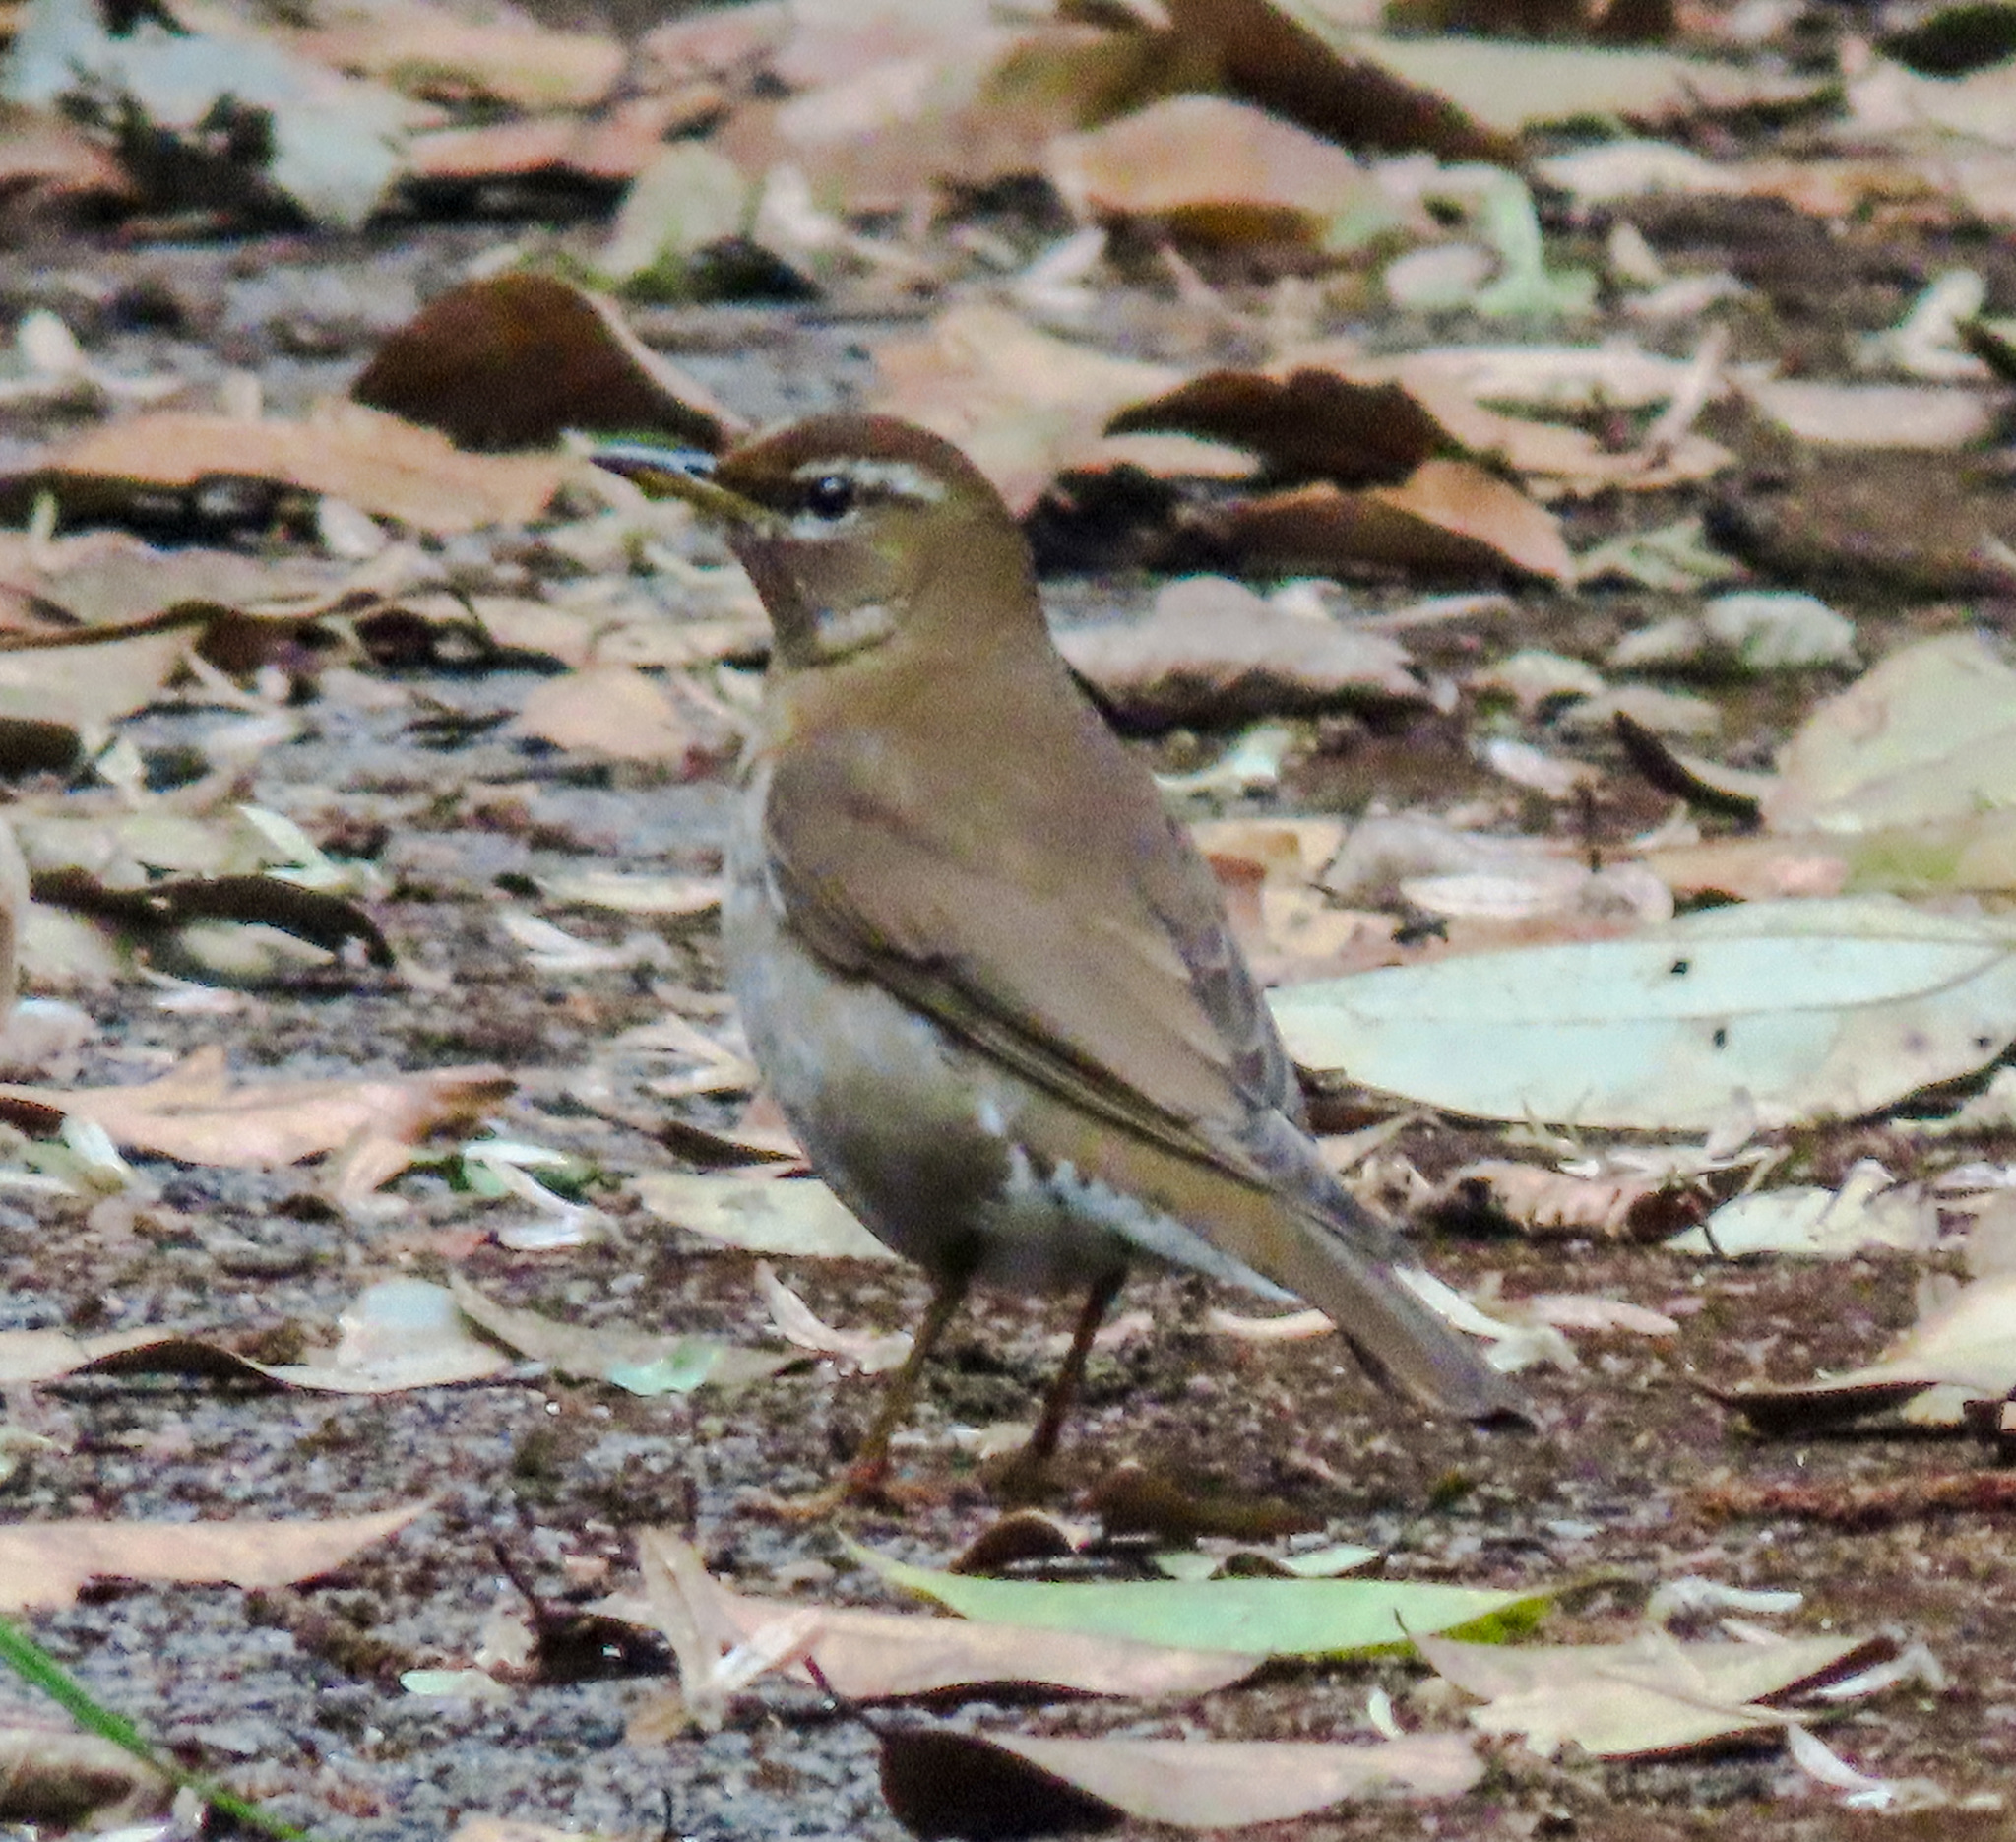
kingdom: Animalia
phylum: Chordata
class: Aves
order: Passeriformes
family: Turdidae
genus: Turdus
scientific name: Turdus feae
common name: Grey-sided thrush
